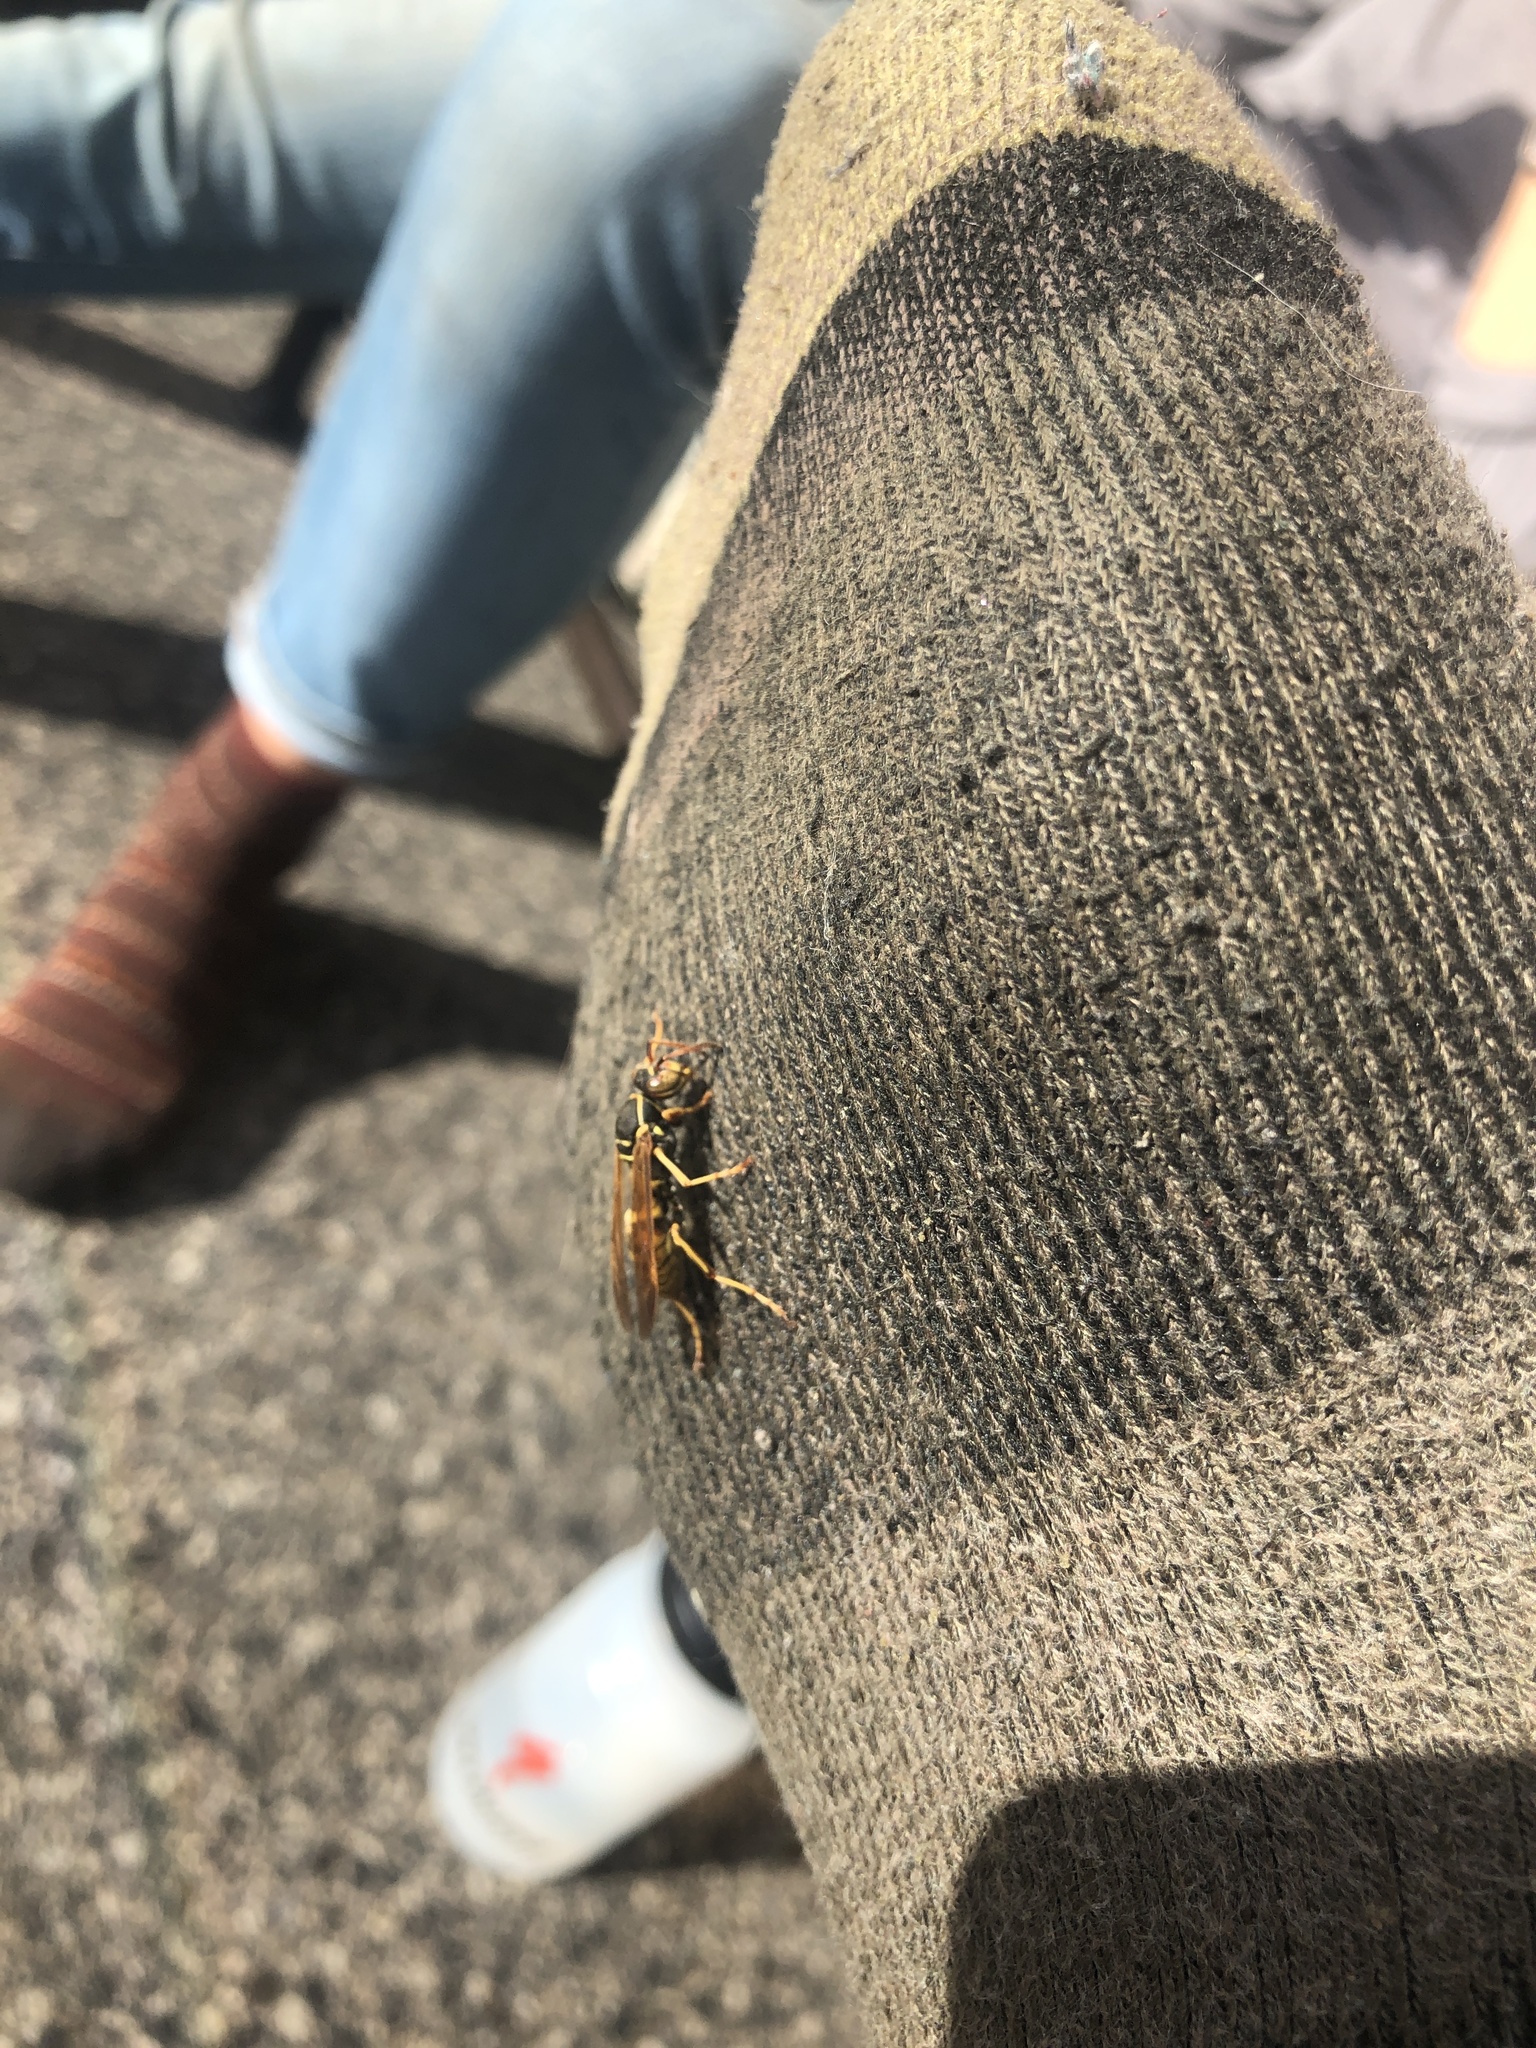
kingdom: Animalia
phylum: Arthropoda
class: Insecta
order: Hymenoptera
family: Eumenidae
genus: Polistes
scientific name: Polistes aurifer
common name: Paper wasp
